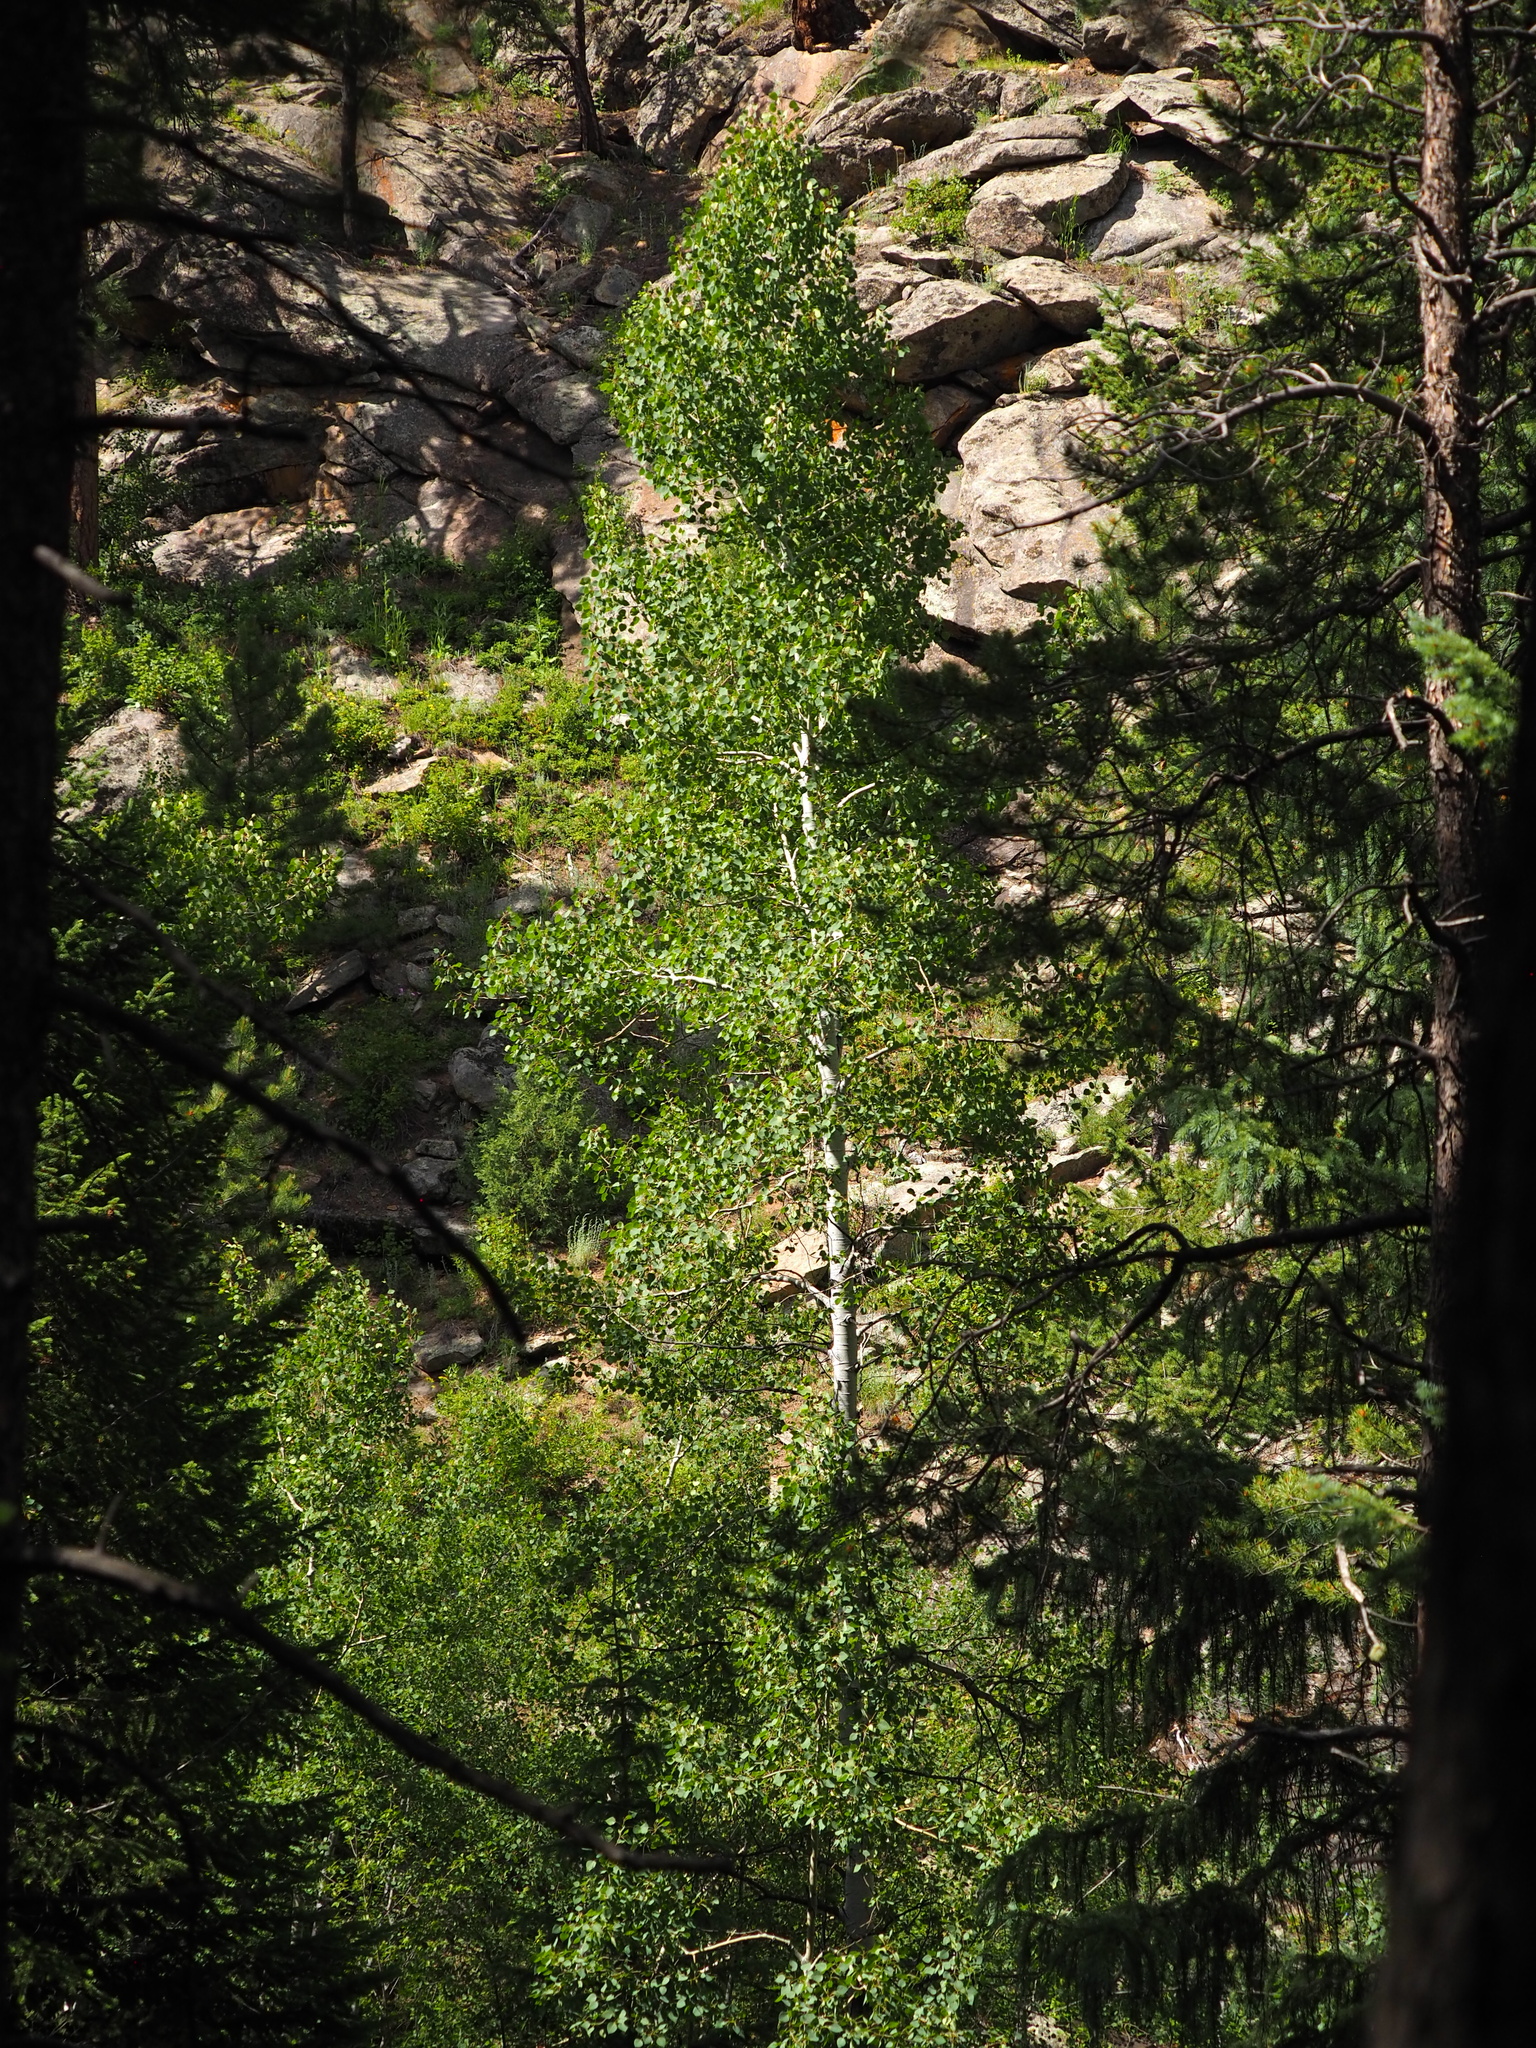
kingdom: Plantae
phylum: Tracheophyta
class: Magnoliopsida
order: Malpighiales
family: Salicaceae
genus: Populus
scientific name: Populus tremuloides
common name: Quaking aspen
